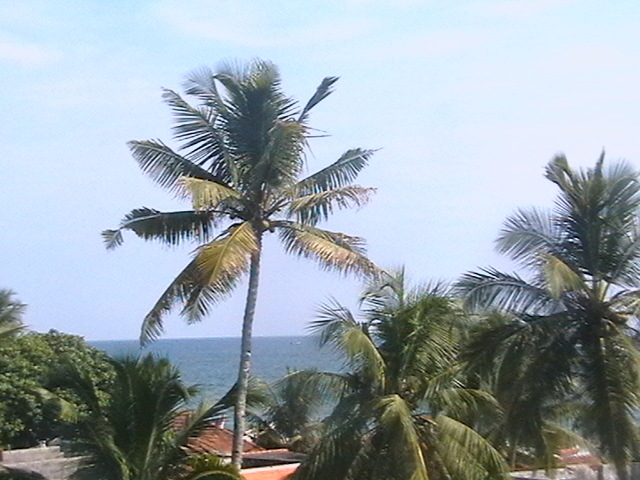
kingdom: Plantae
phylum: Tracheophyta
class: Liliopsida
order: Arecales
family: Arecaceae
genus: Cocos
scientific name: Cocos nucifera
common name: Coconut palm
